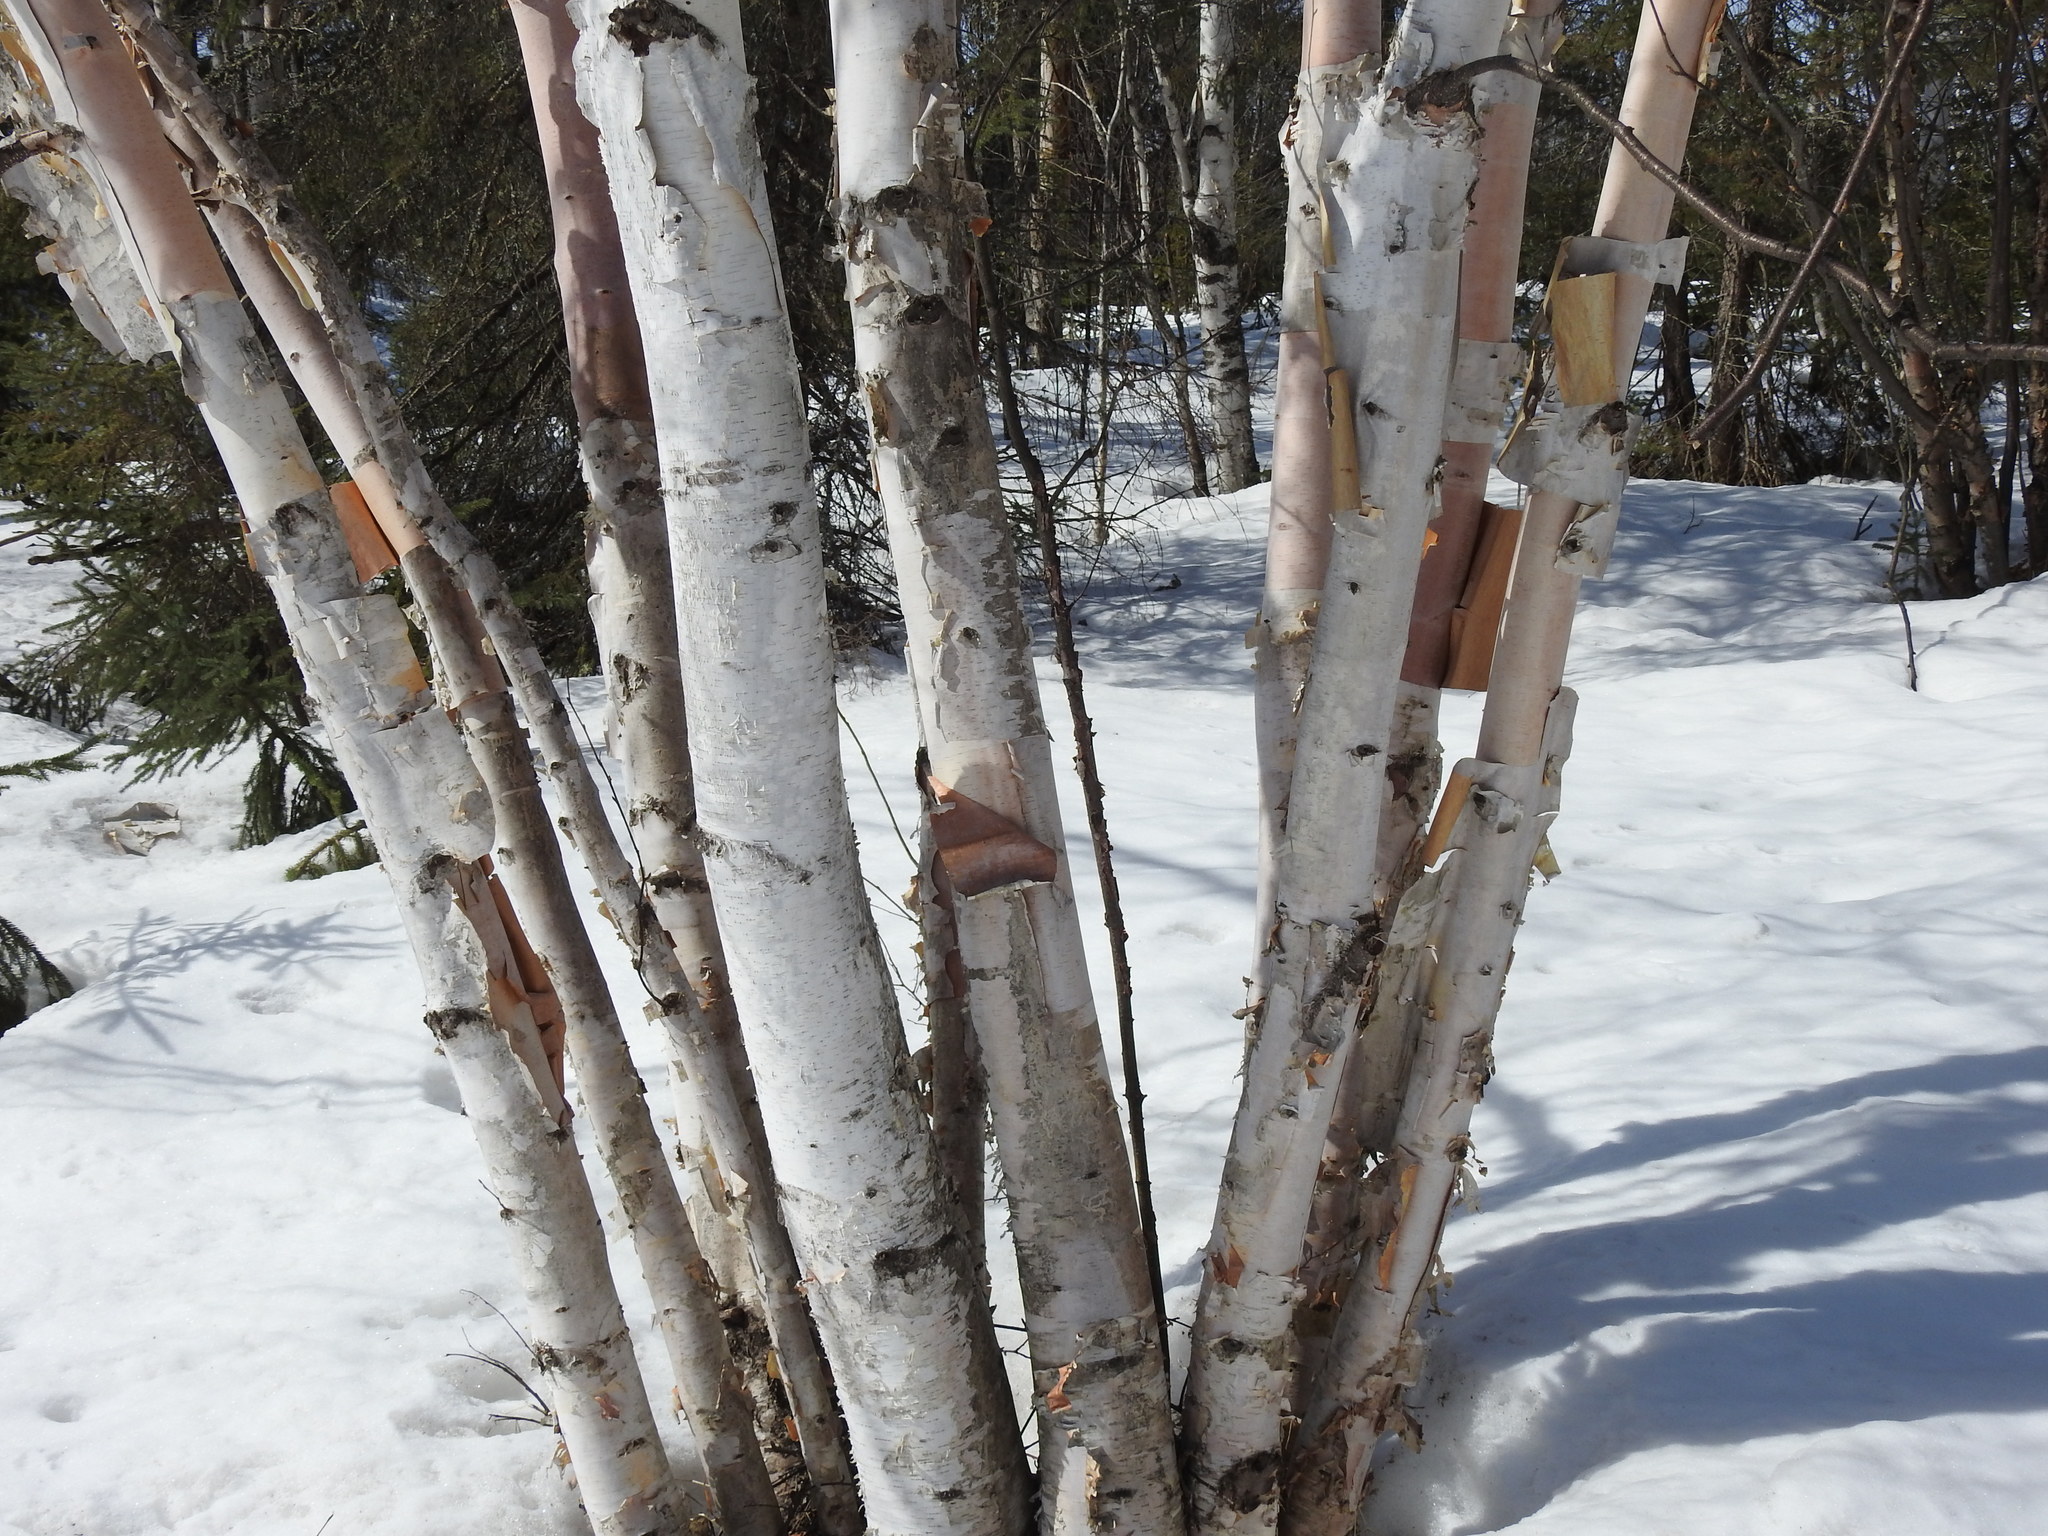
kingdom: Plantae
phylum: Tracheophyta
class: Magnoliopsida
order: Fagales
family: Betulaceae
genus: Betula
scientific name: Betula papyrifera
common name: Paper birch
